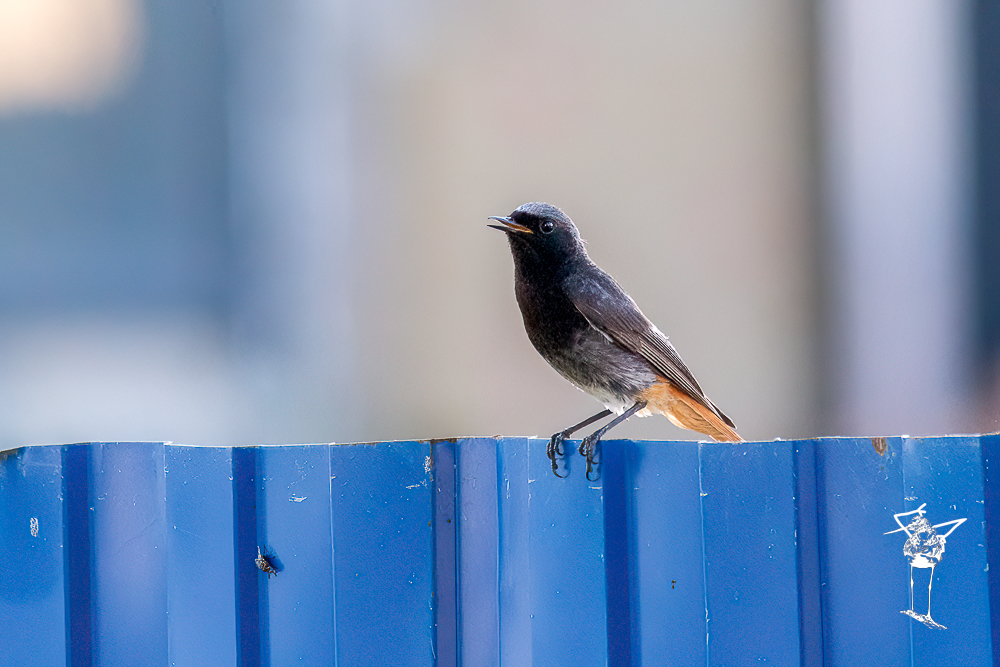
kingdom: Animalia
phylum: Chordata
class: Aves
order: Passeriformes
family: Muscicapidae
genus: Phoenicurus
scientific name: Phoenicurus ochruros
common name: Black redstart
